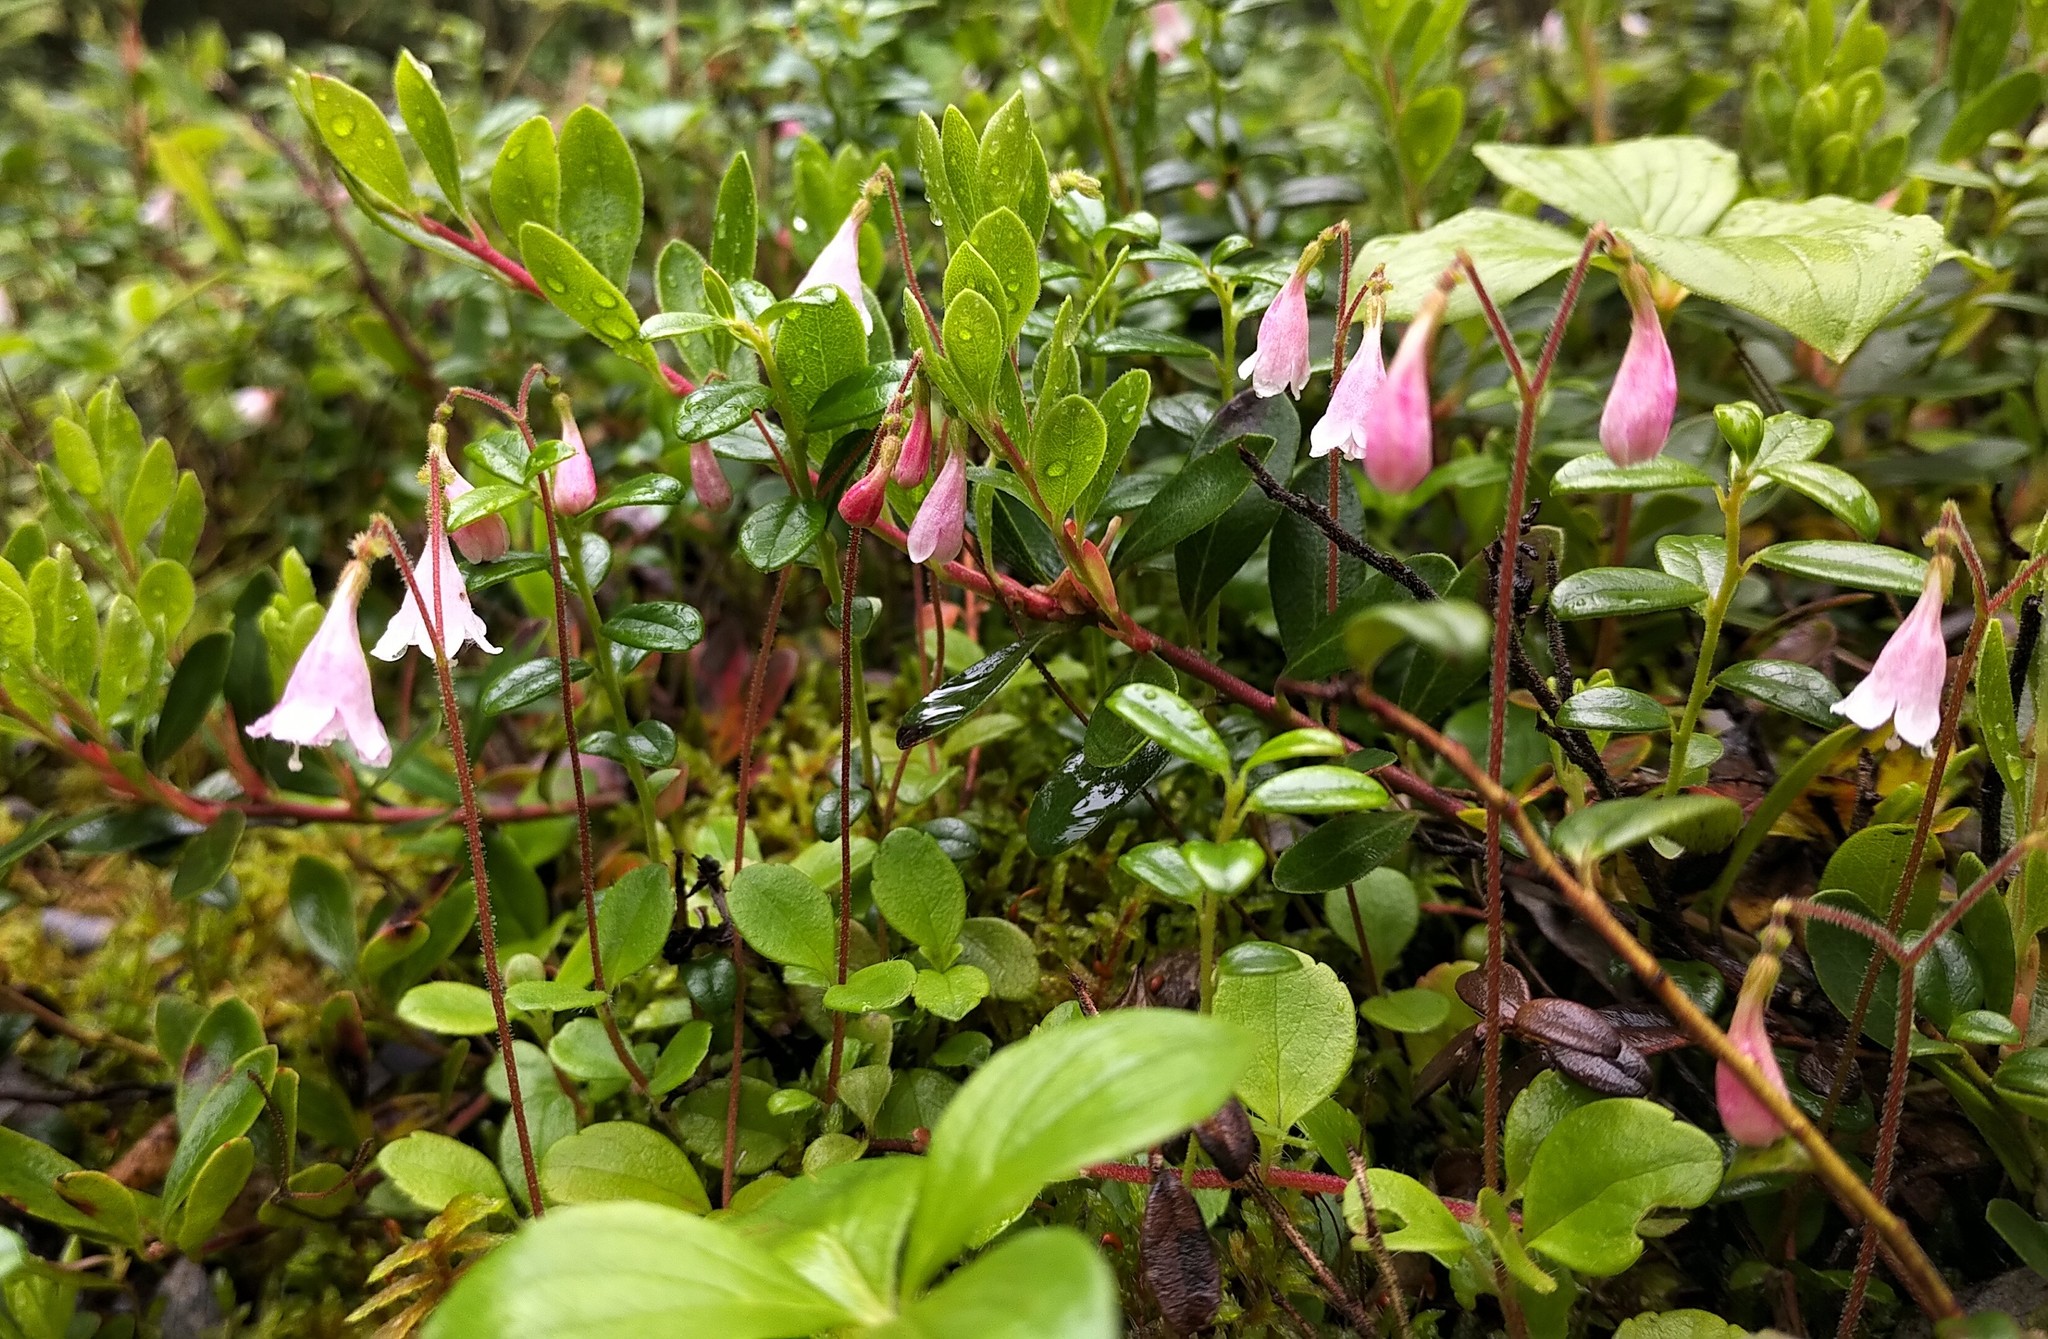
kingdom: Plantae
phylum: Tracheophyta
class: Magnoliopsida
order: Dipsacales
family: Caprifoliaceae
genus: Linnaea
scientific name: Linnaea borealis
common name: Twinflower
